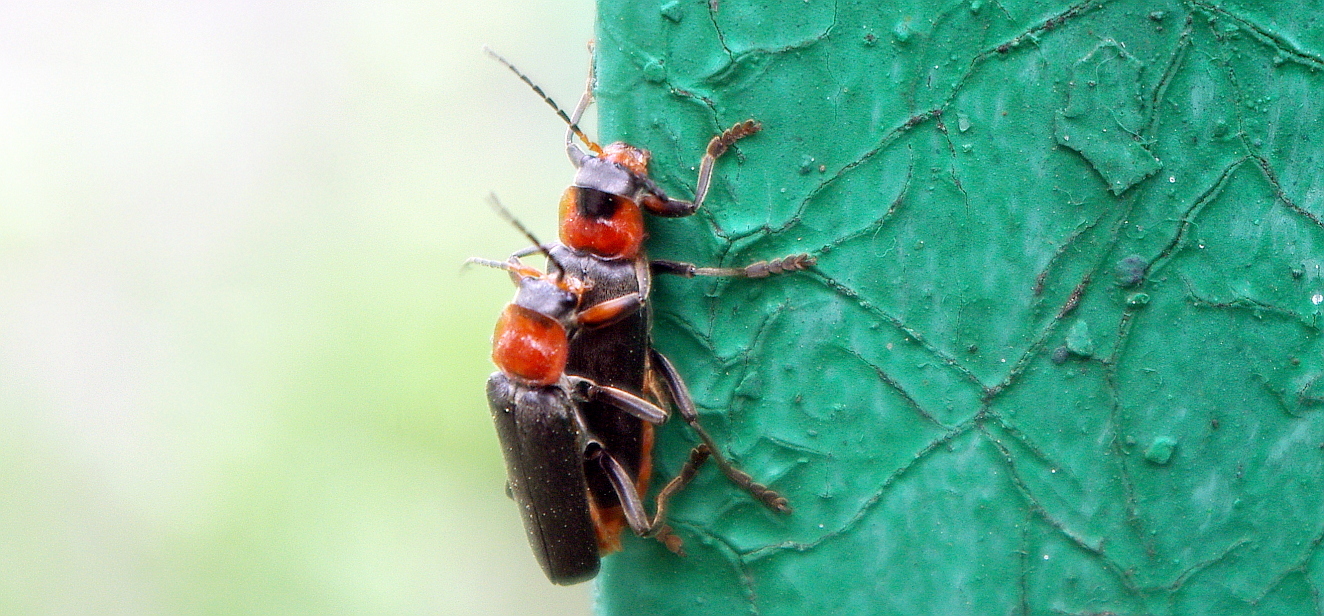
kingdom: Animalia
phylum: Arthropoda
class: Insecta
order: Coleoptera
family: Cantharidae
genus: Cantharis
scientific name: Cantharis fusca
